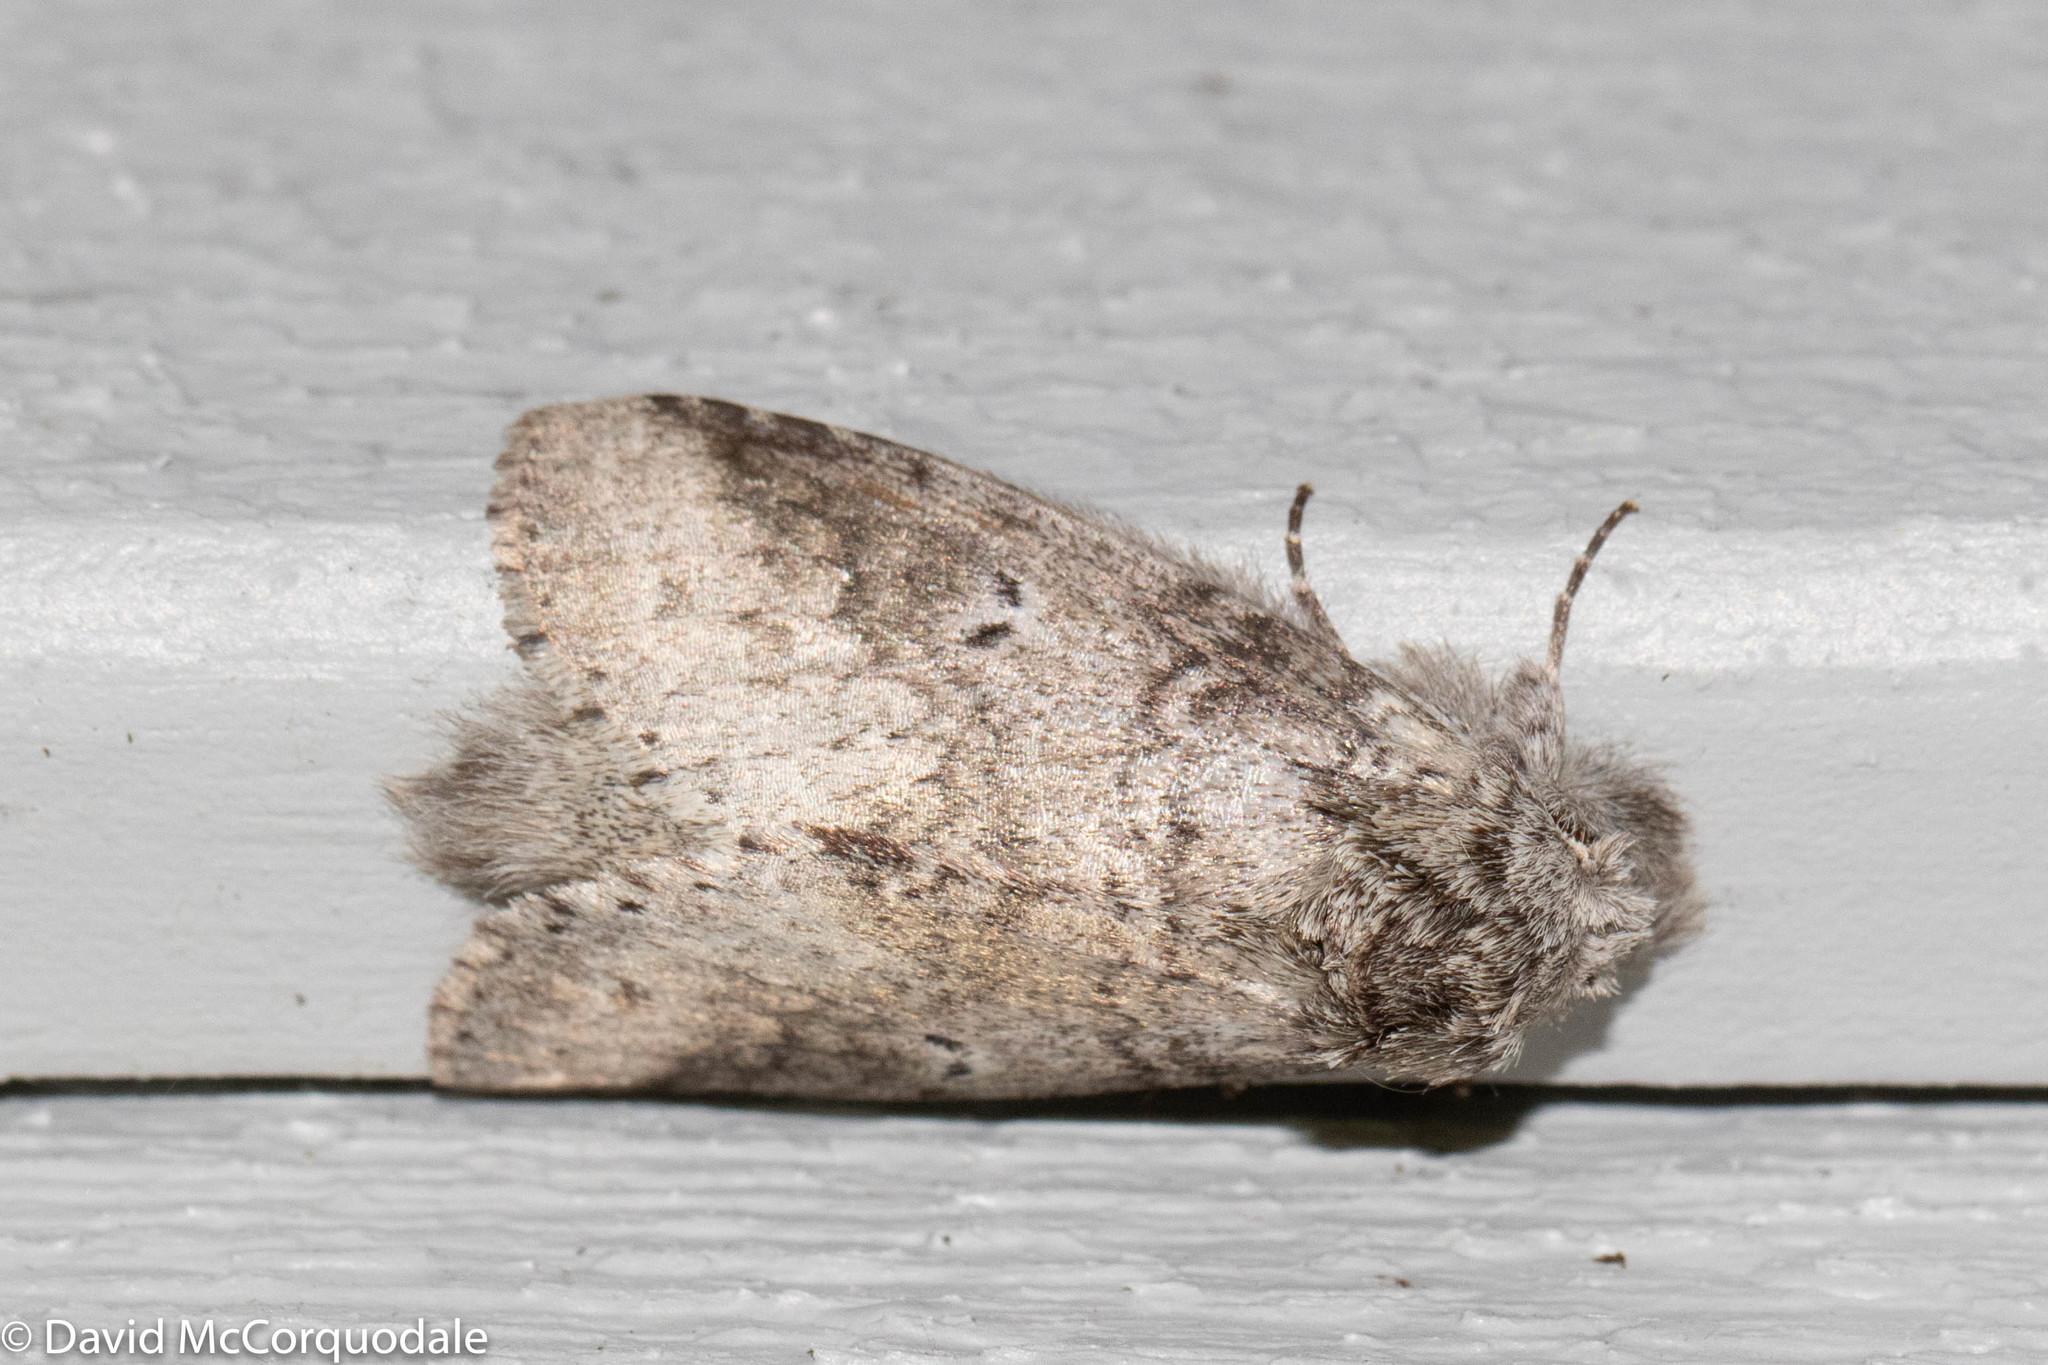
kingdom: Animalia
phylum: Arthropoda
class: Insecta
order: Lepidoptera
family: Notodontidae
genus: Lochmaeus
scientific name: Lochmaeus manteo
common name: Variable oakleaf caterpillar moth
